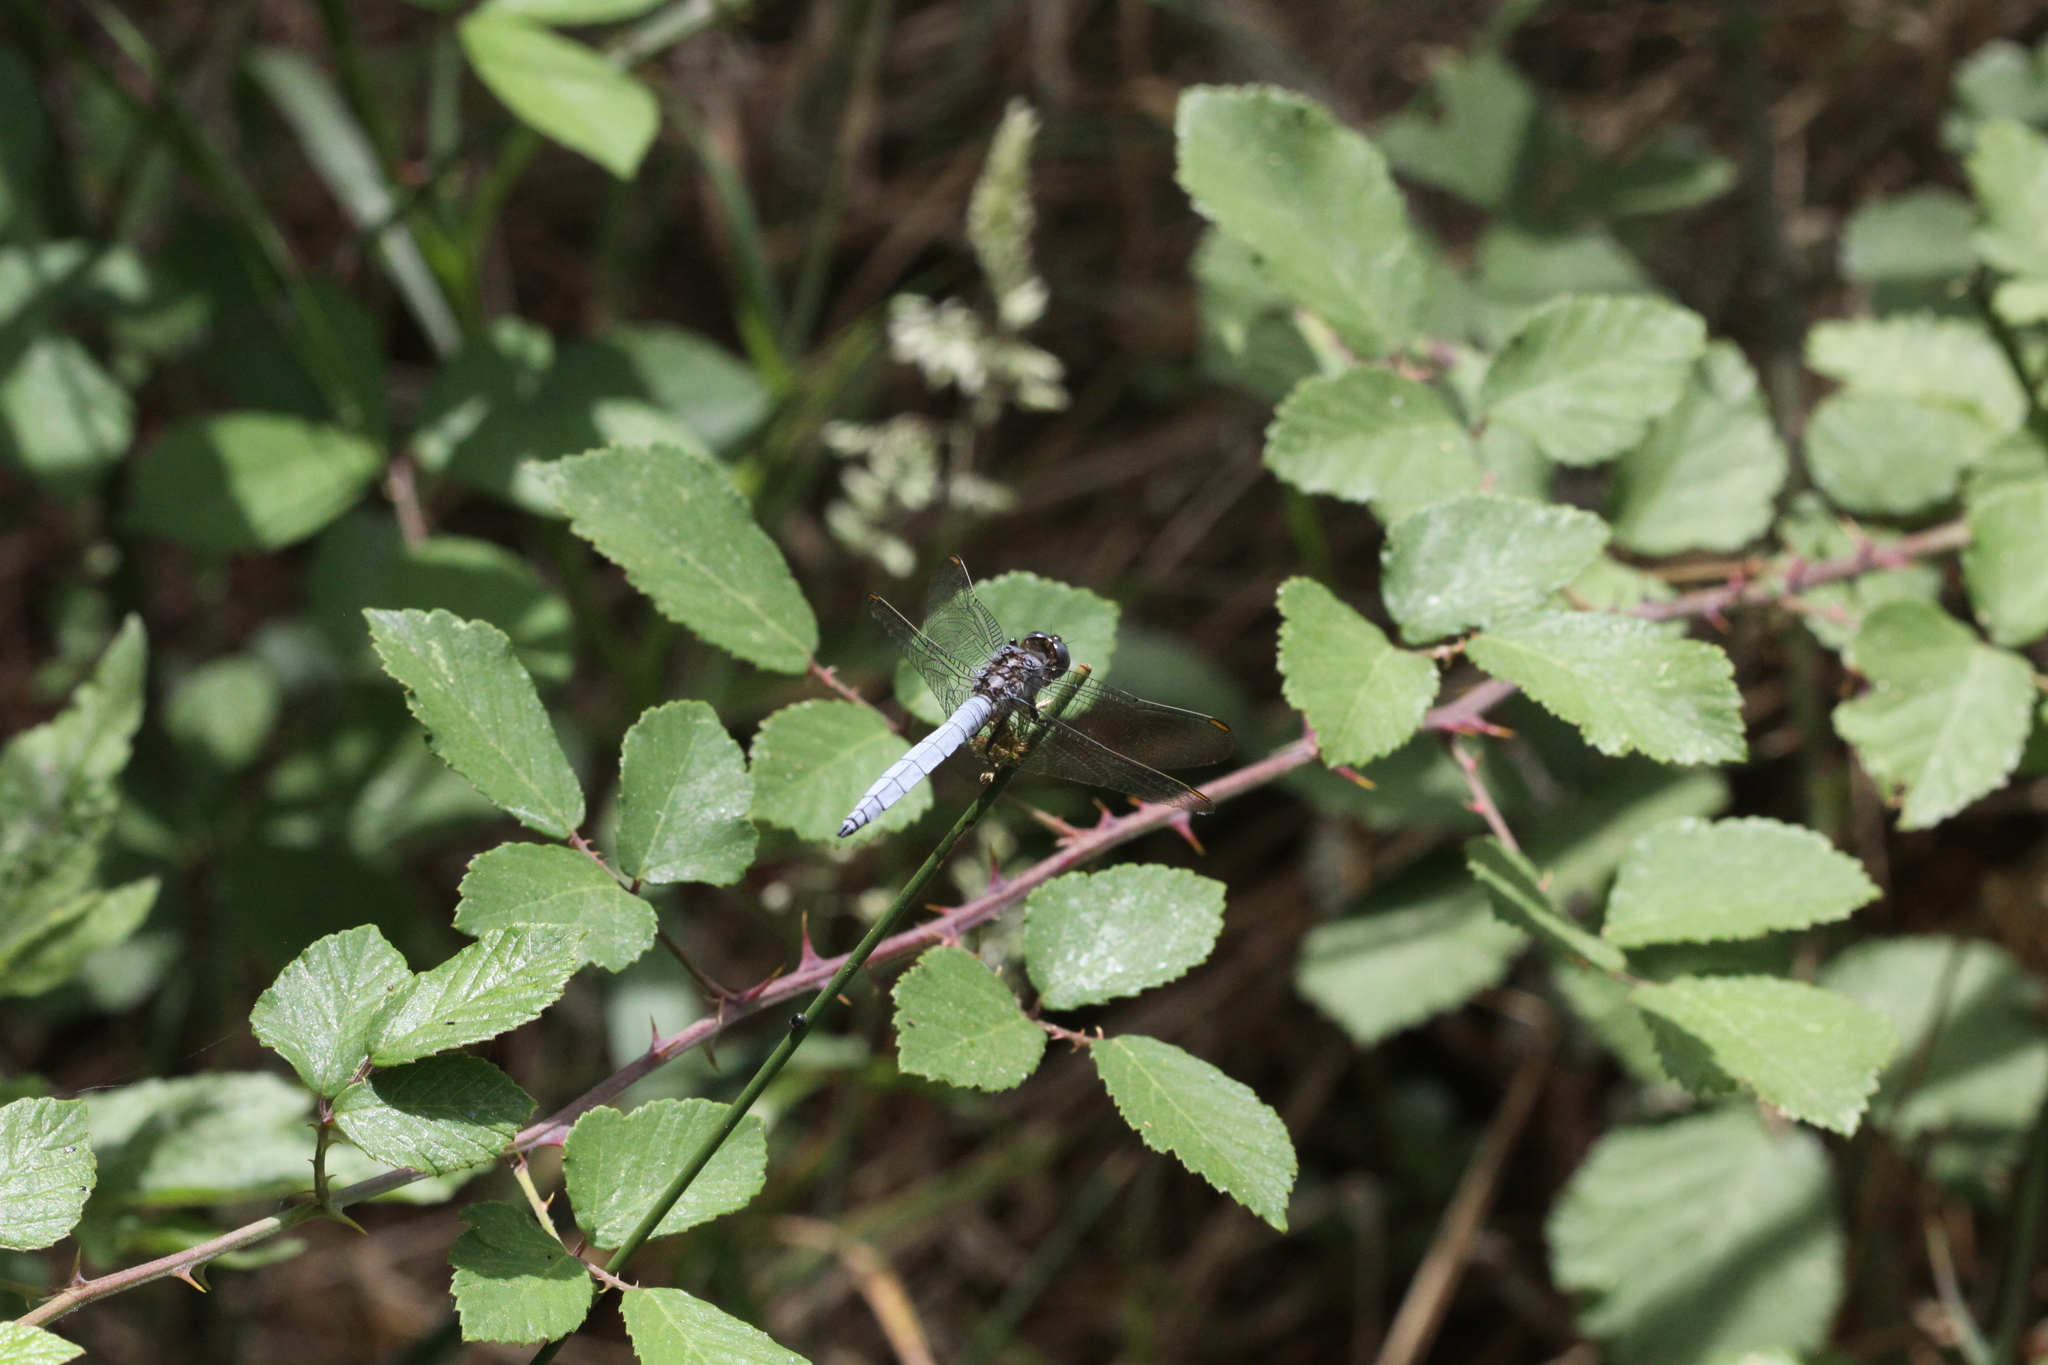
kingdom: Animalia
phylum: Arthropoda
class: Insecta
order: Odonata
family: Libellulidae
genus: Orthetrum
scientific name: Orthetrum coerulescens
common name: Keeled skimmer
